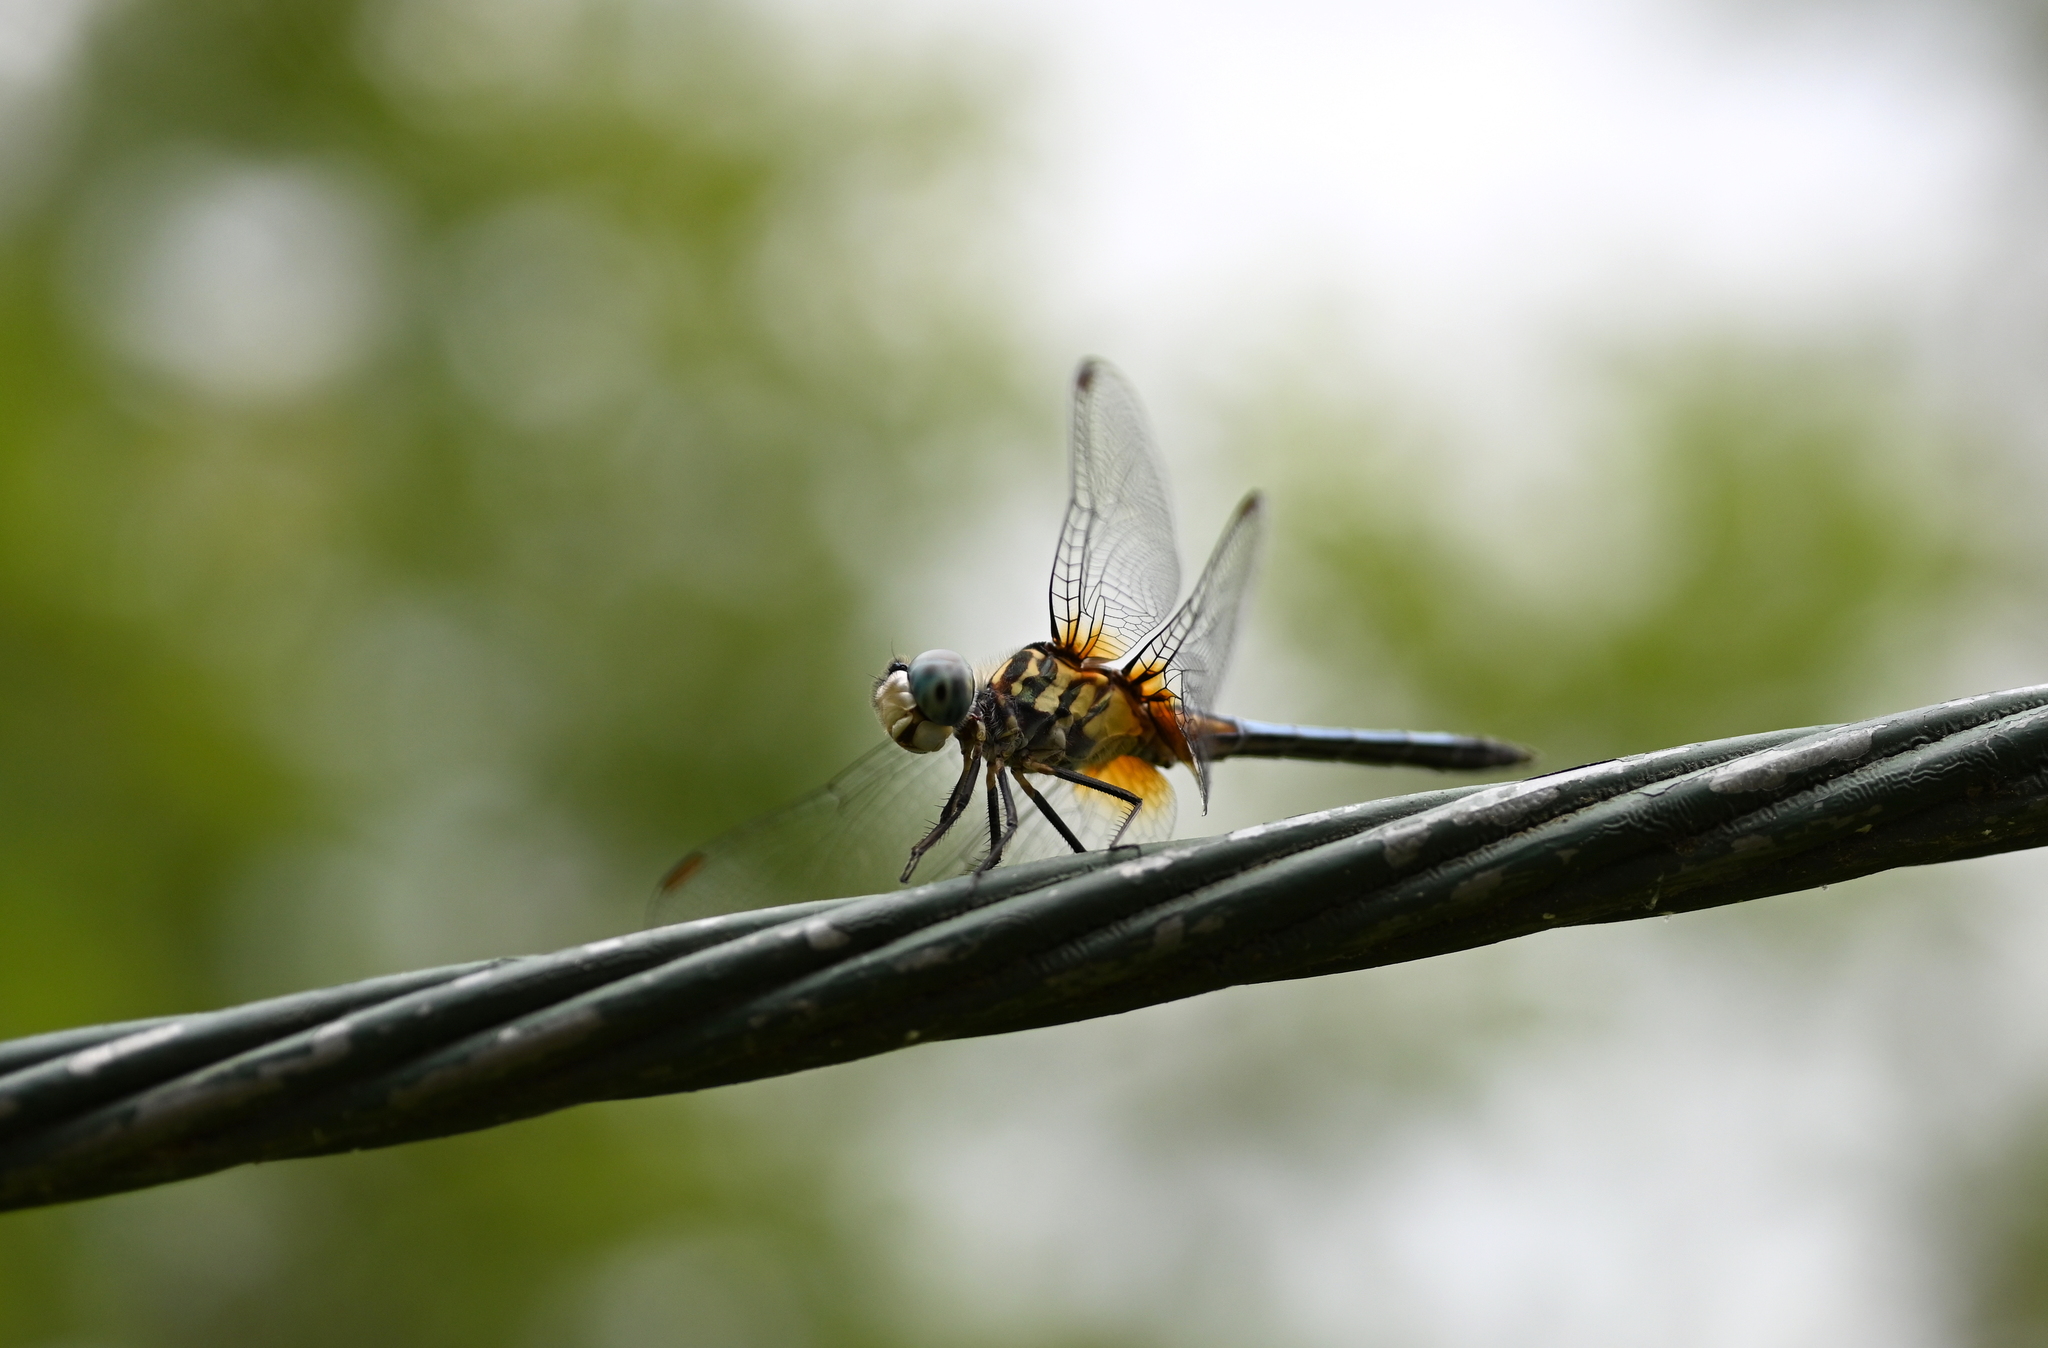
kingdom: Animalia
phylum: Arthropoda
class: Insecta
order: Odonata
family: Libellulidae
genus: Pachydiplax
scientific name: Pachydiplax longipennis
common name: Blue dasher
